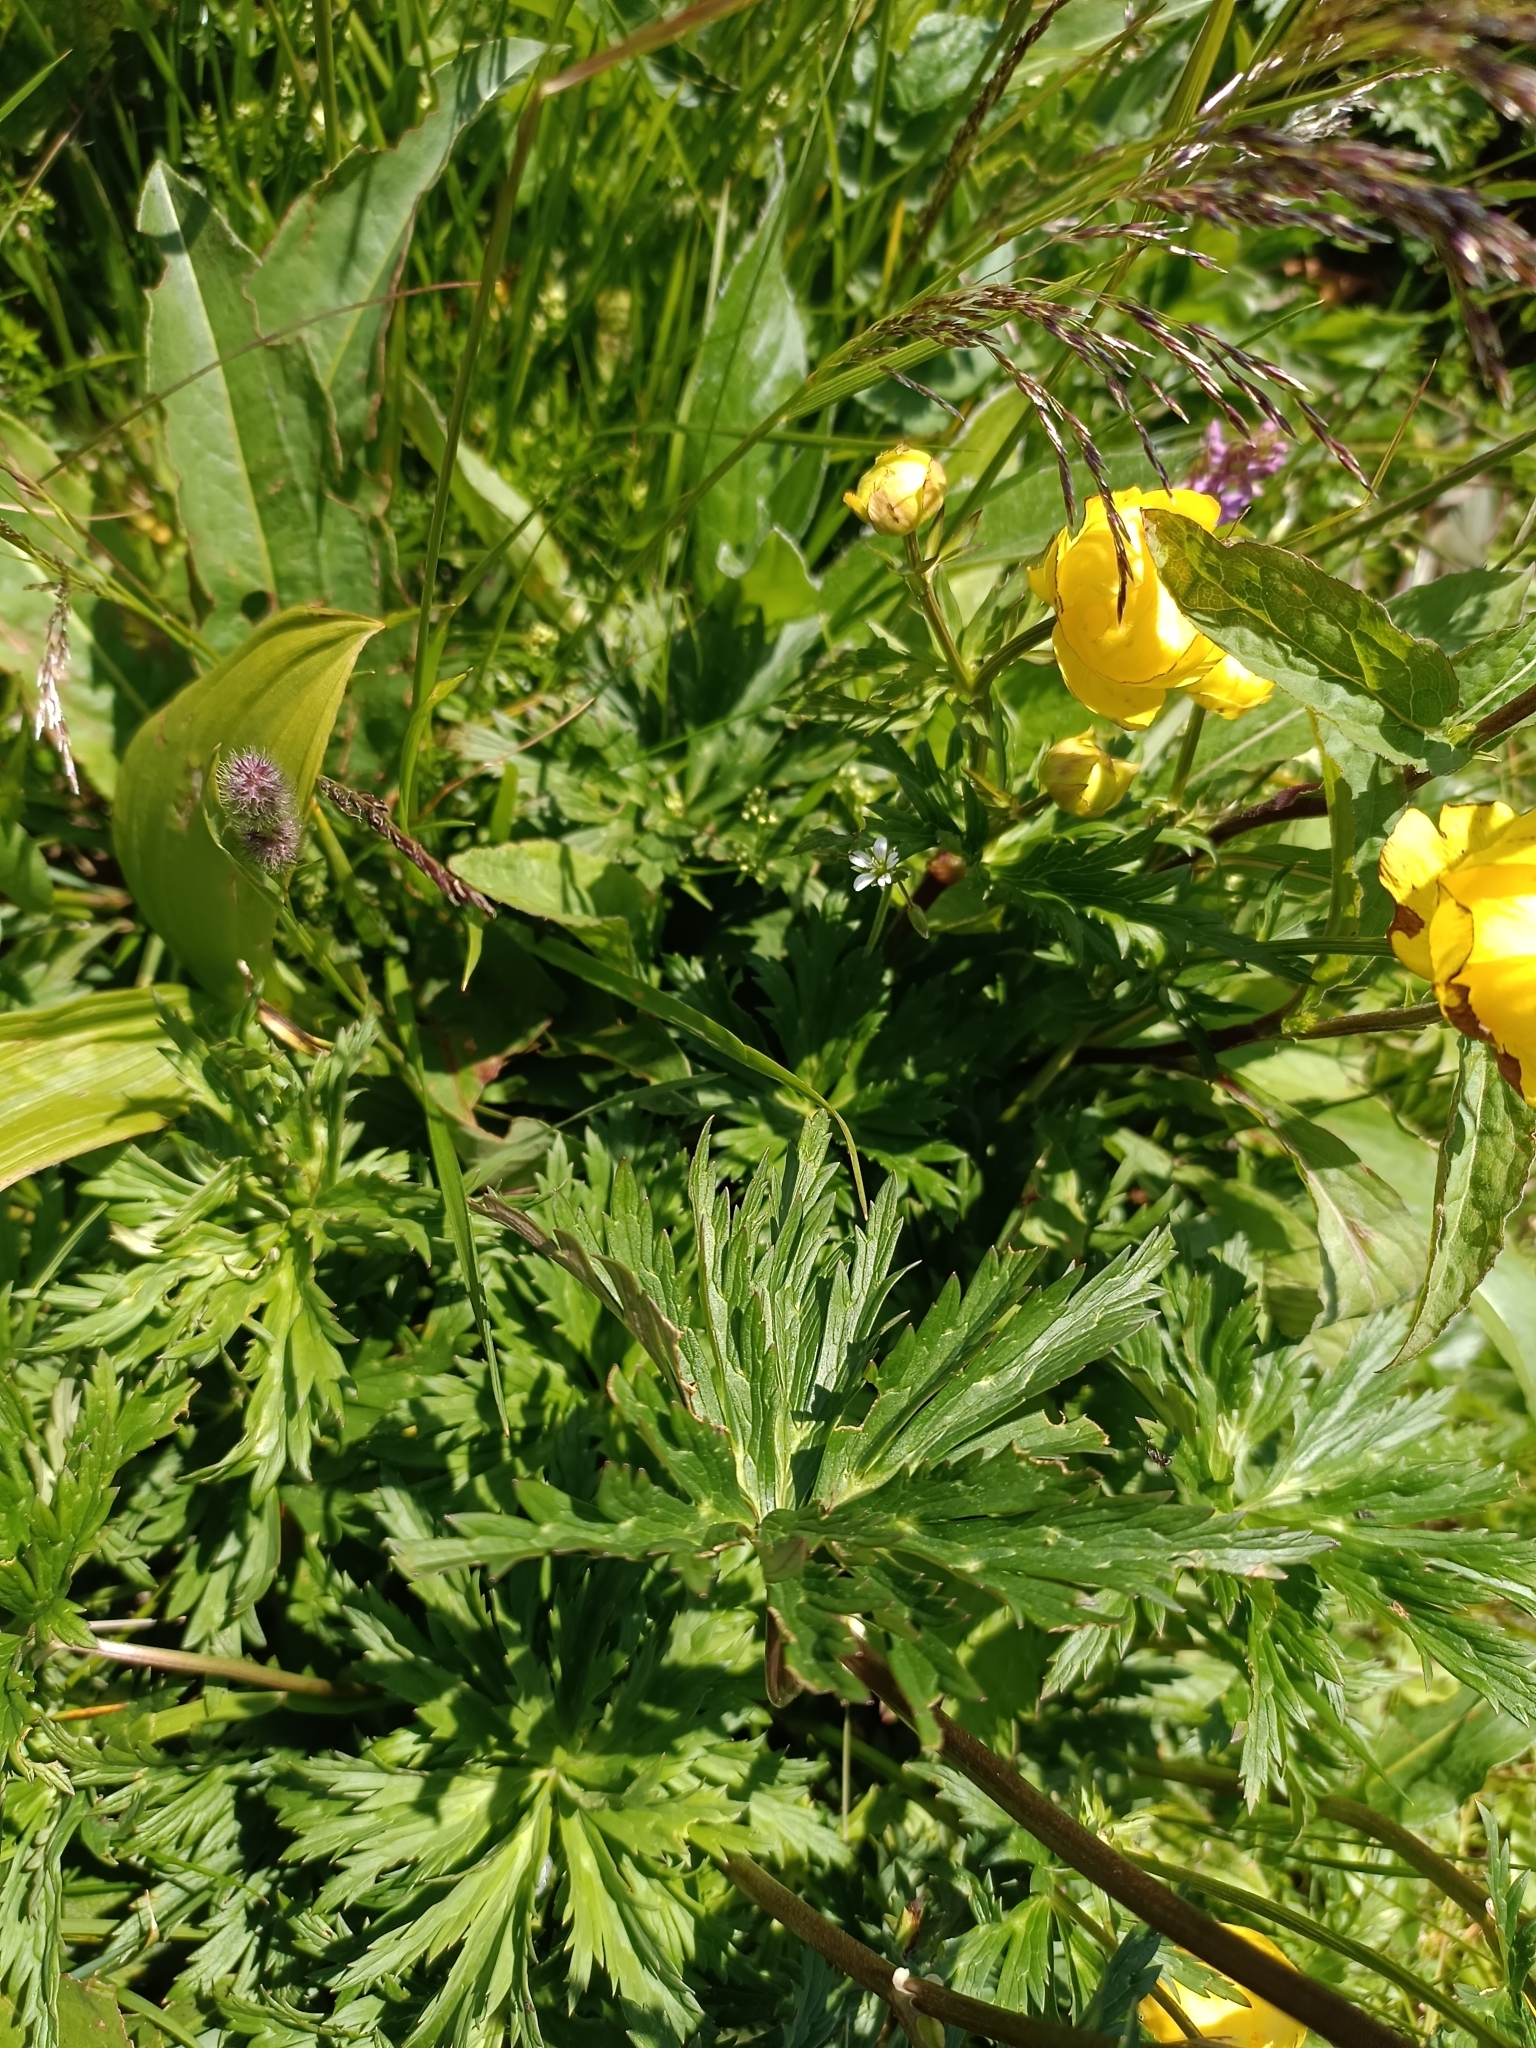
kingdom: Plantae
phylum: Tracheophyta
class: Magnoliopsida
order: Ranunculales
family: Ranunculaceae
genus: Trollius
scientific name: Trollius europaeus
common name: European globeflower
